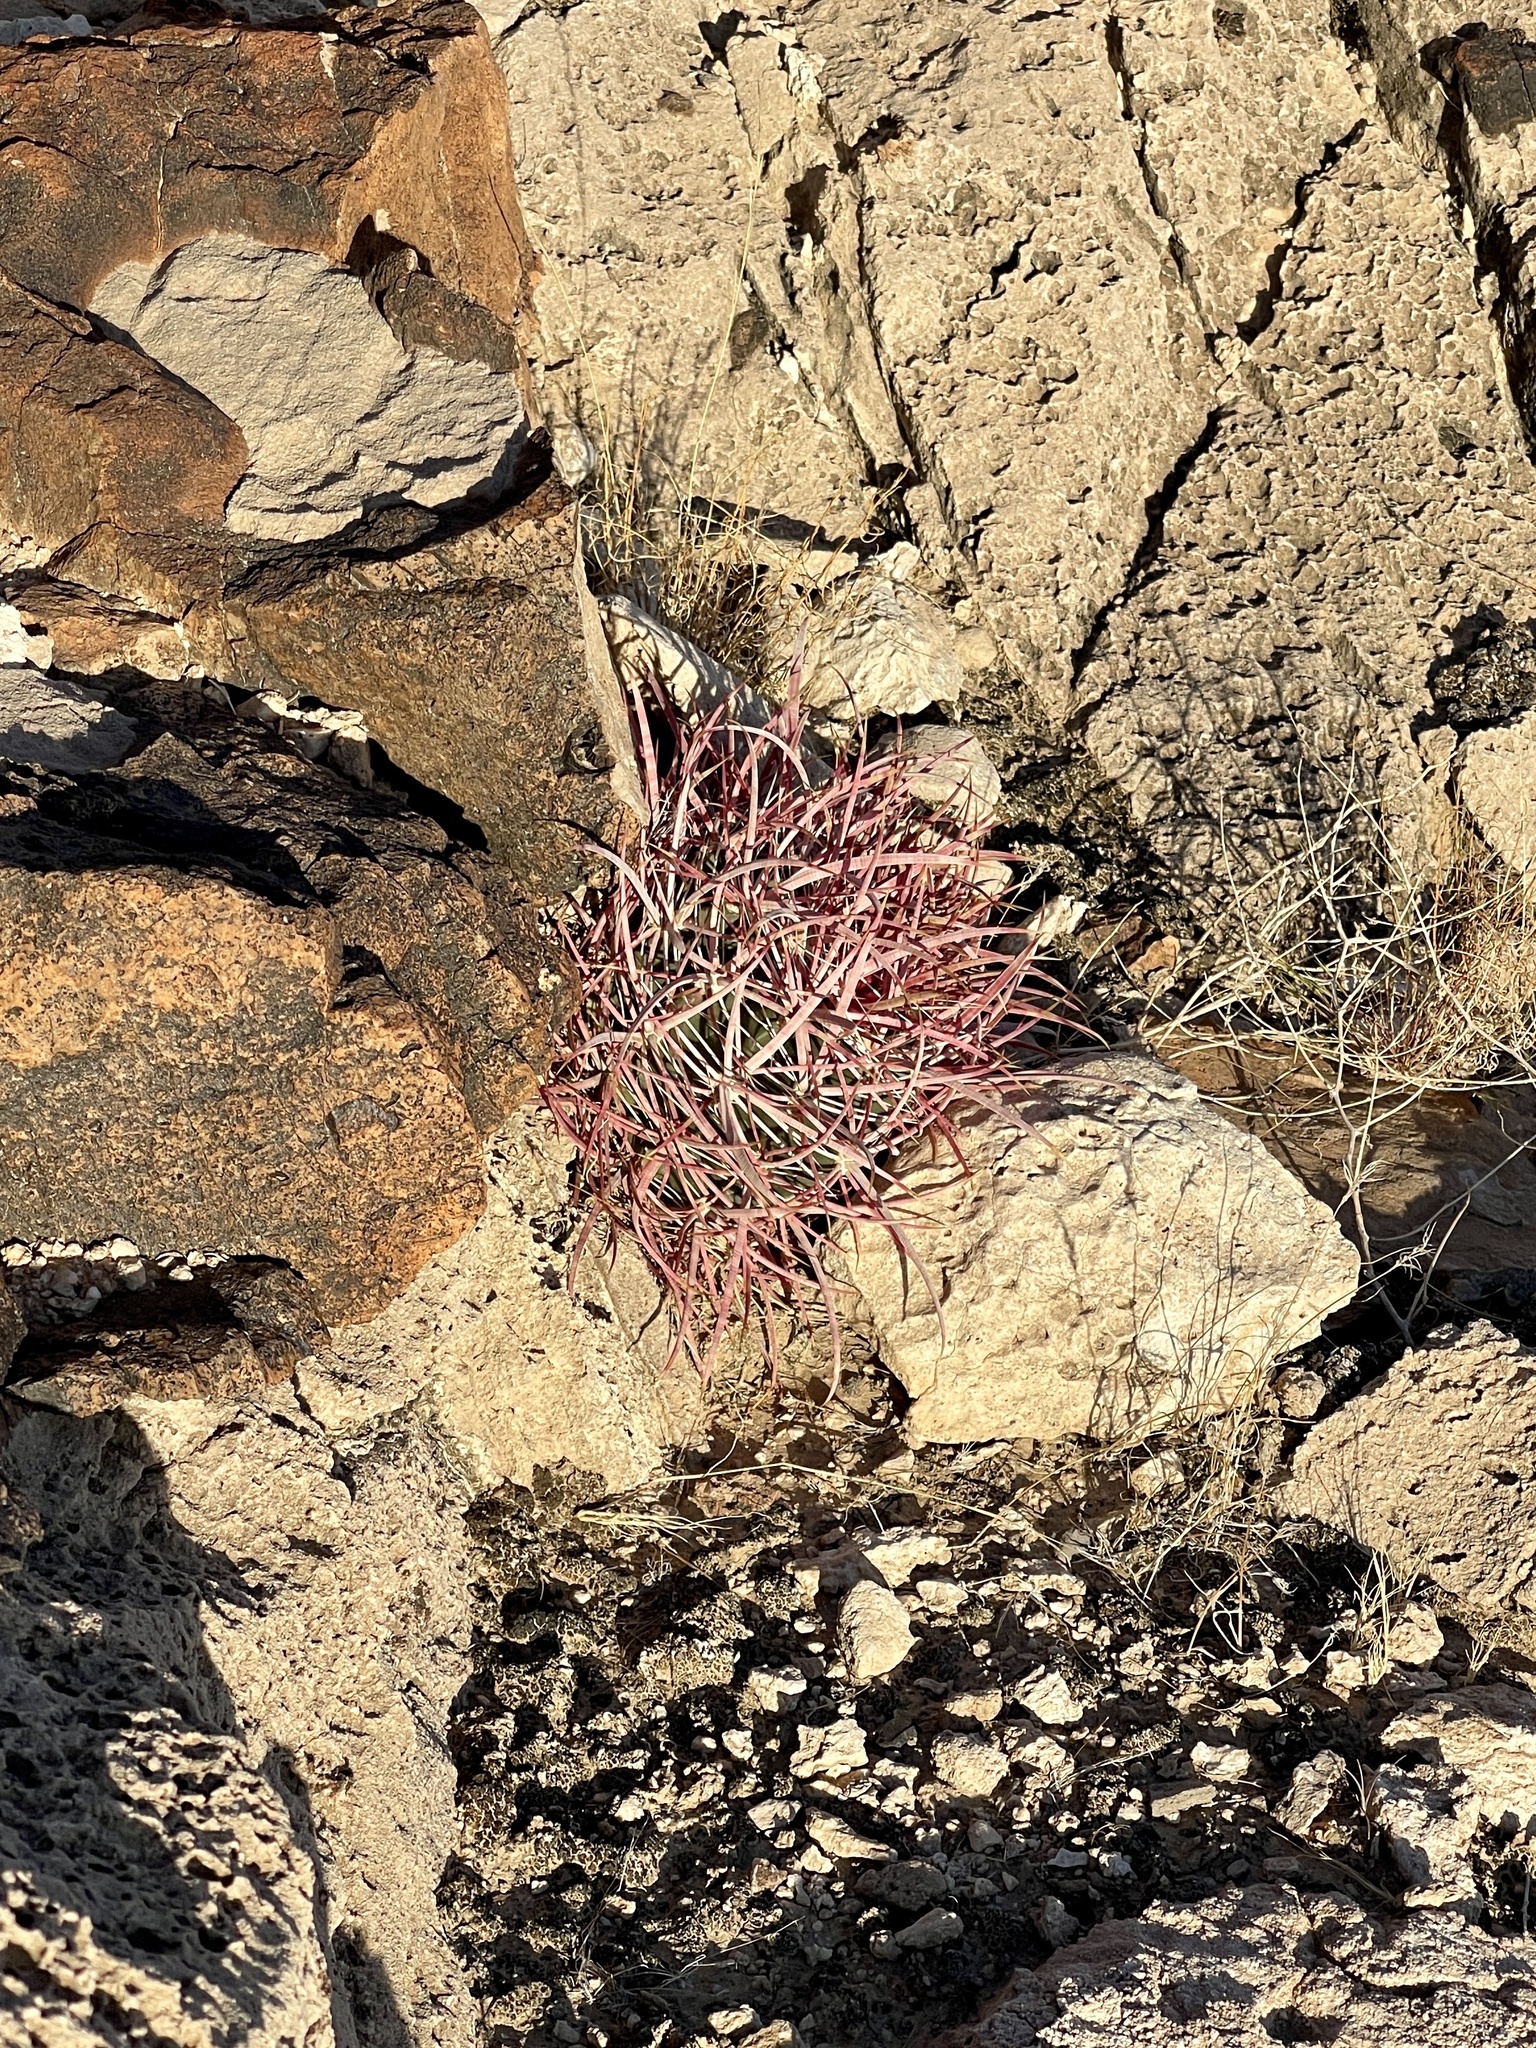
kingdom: Plantae
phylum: Tracheophyta
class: Magnoliopsida
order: Caryophyllales
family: Cactaceae
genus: Ferocactus
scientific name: Ferocactus cylindraceus
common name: California barrel cactus
